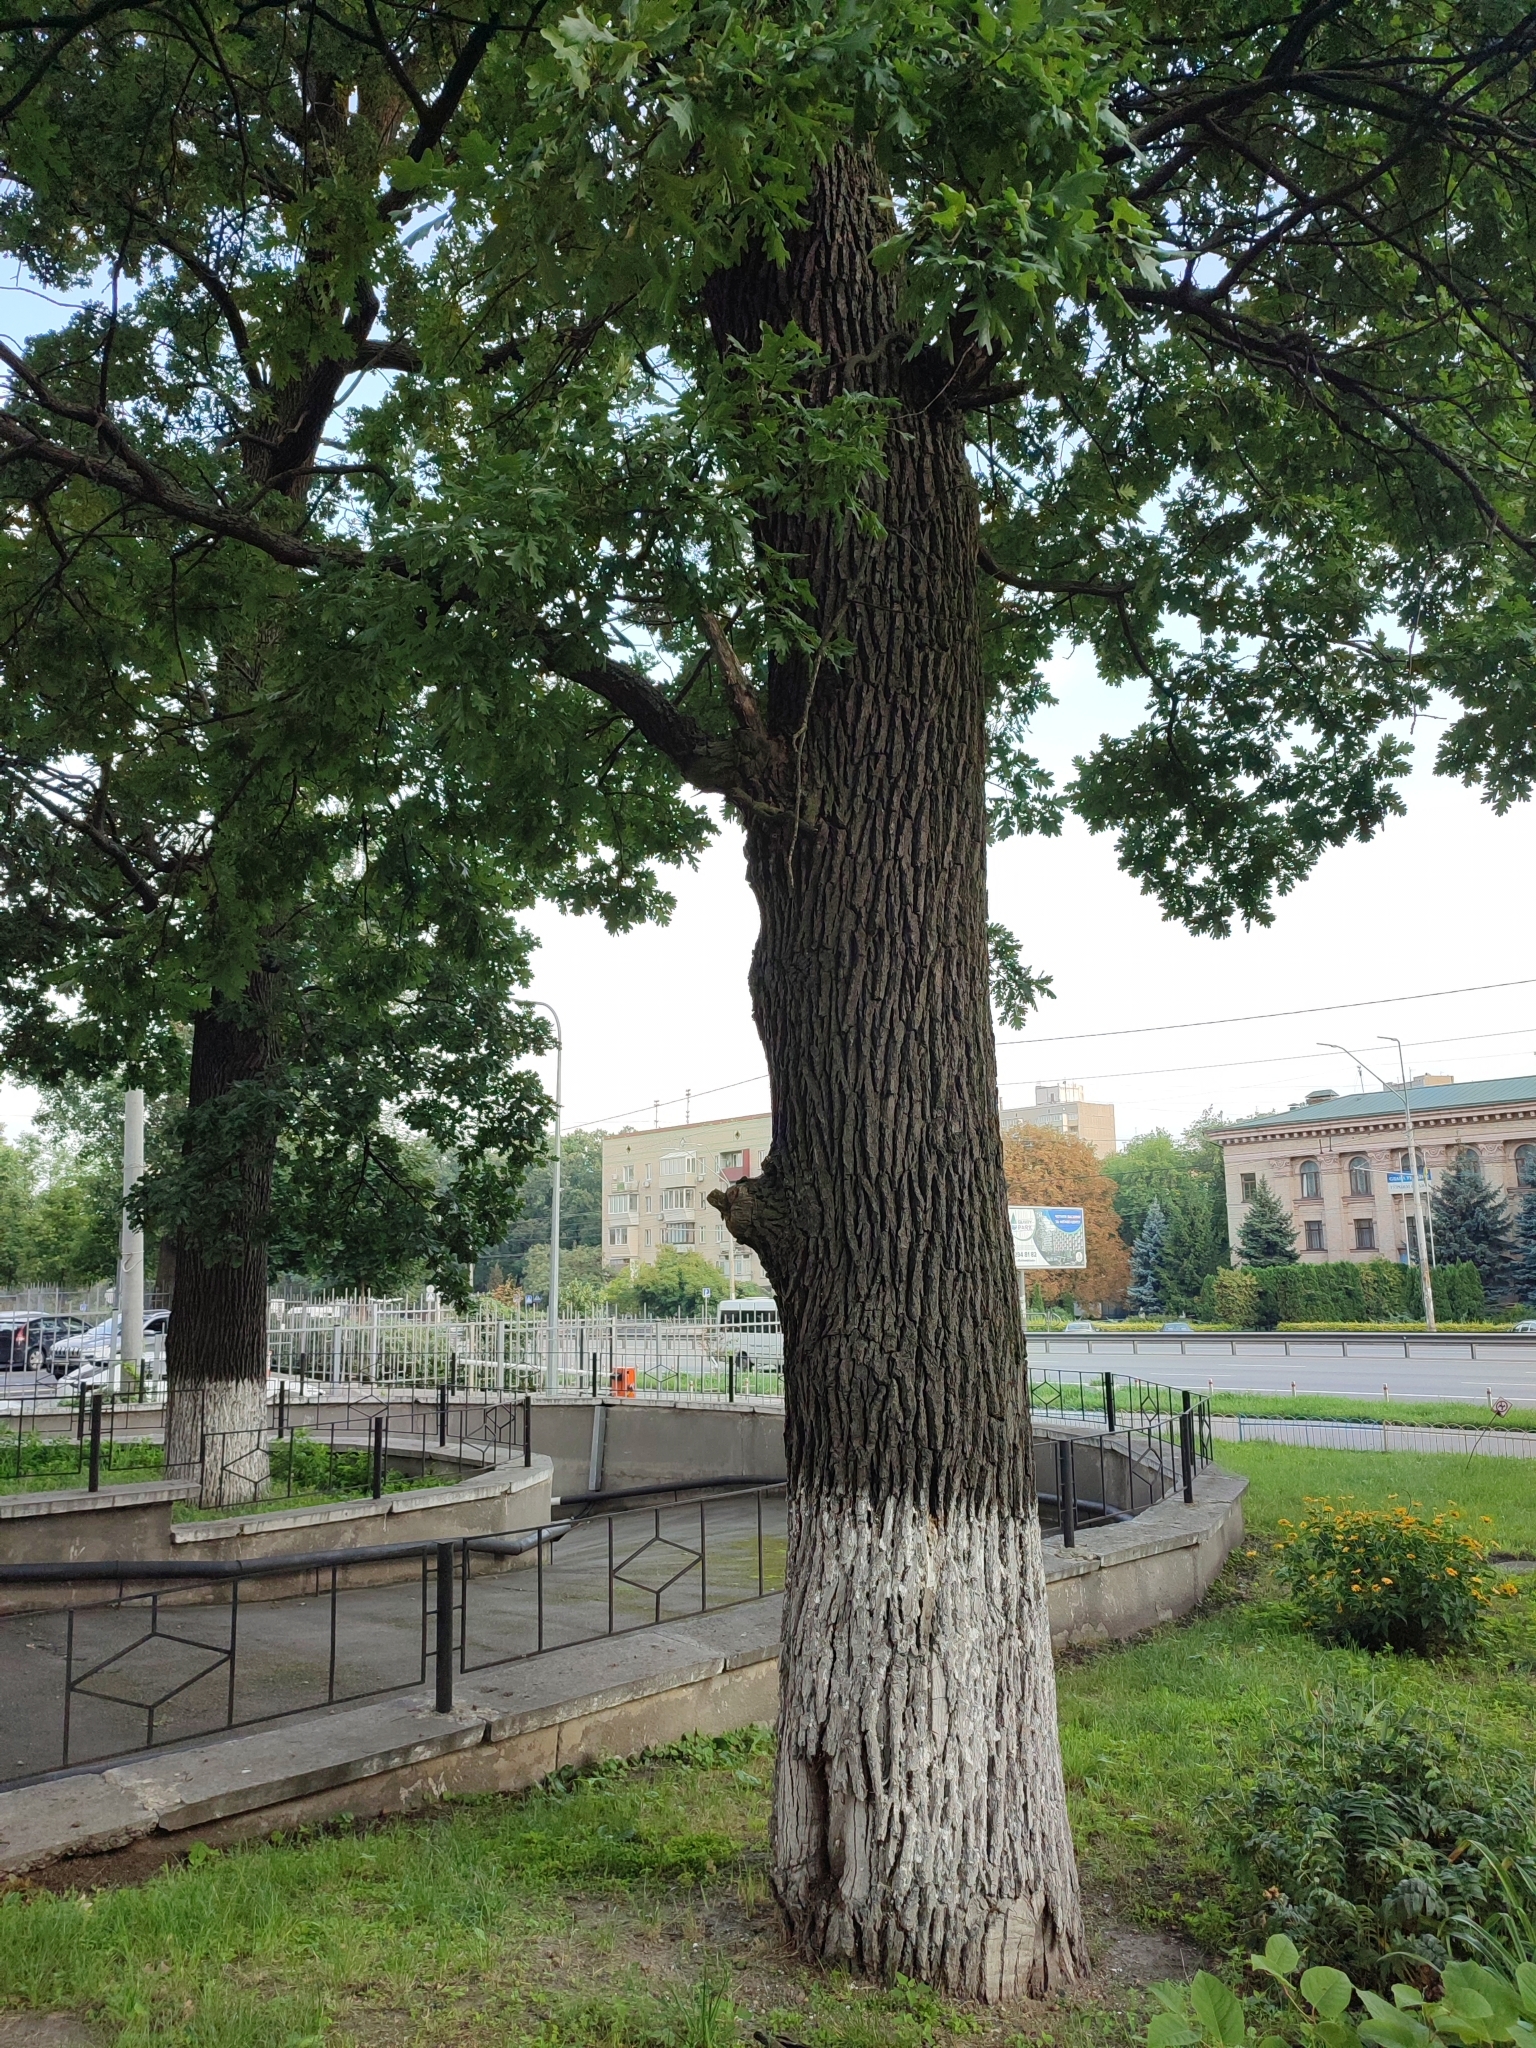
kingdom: Plantae
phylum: Tracheophyta
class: Magnoliopsida
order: Fagales
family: Fagaceae
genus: Quercus
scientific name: Quercus robur
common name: Pedunculate oak
